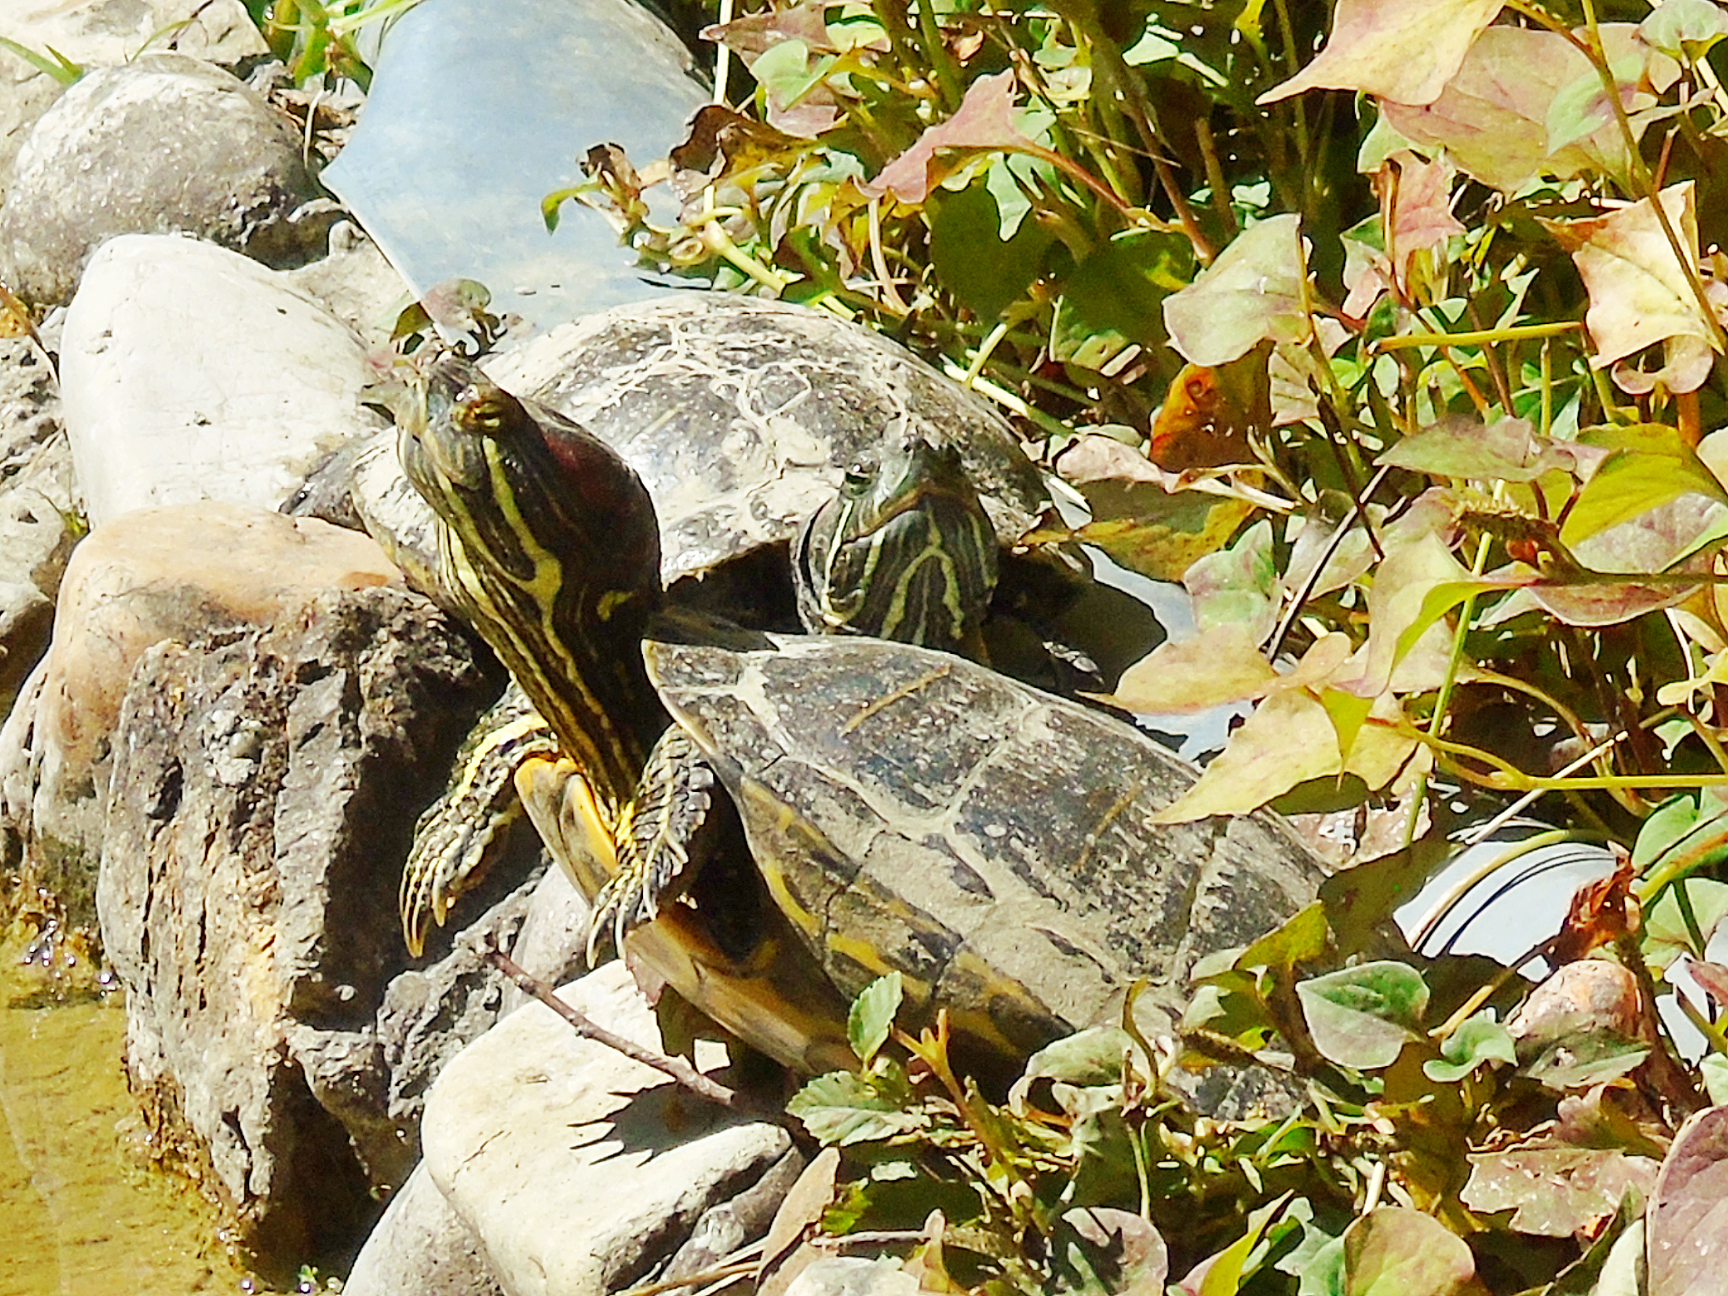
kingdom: Animalia
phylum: Chordata
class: Testudines
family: Emydidae
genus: Trachemys
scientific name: Trachemys scripta
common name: Slider
